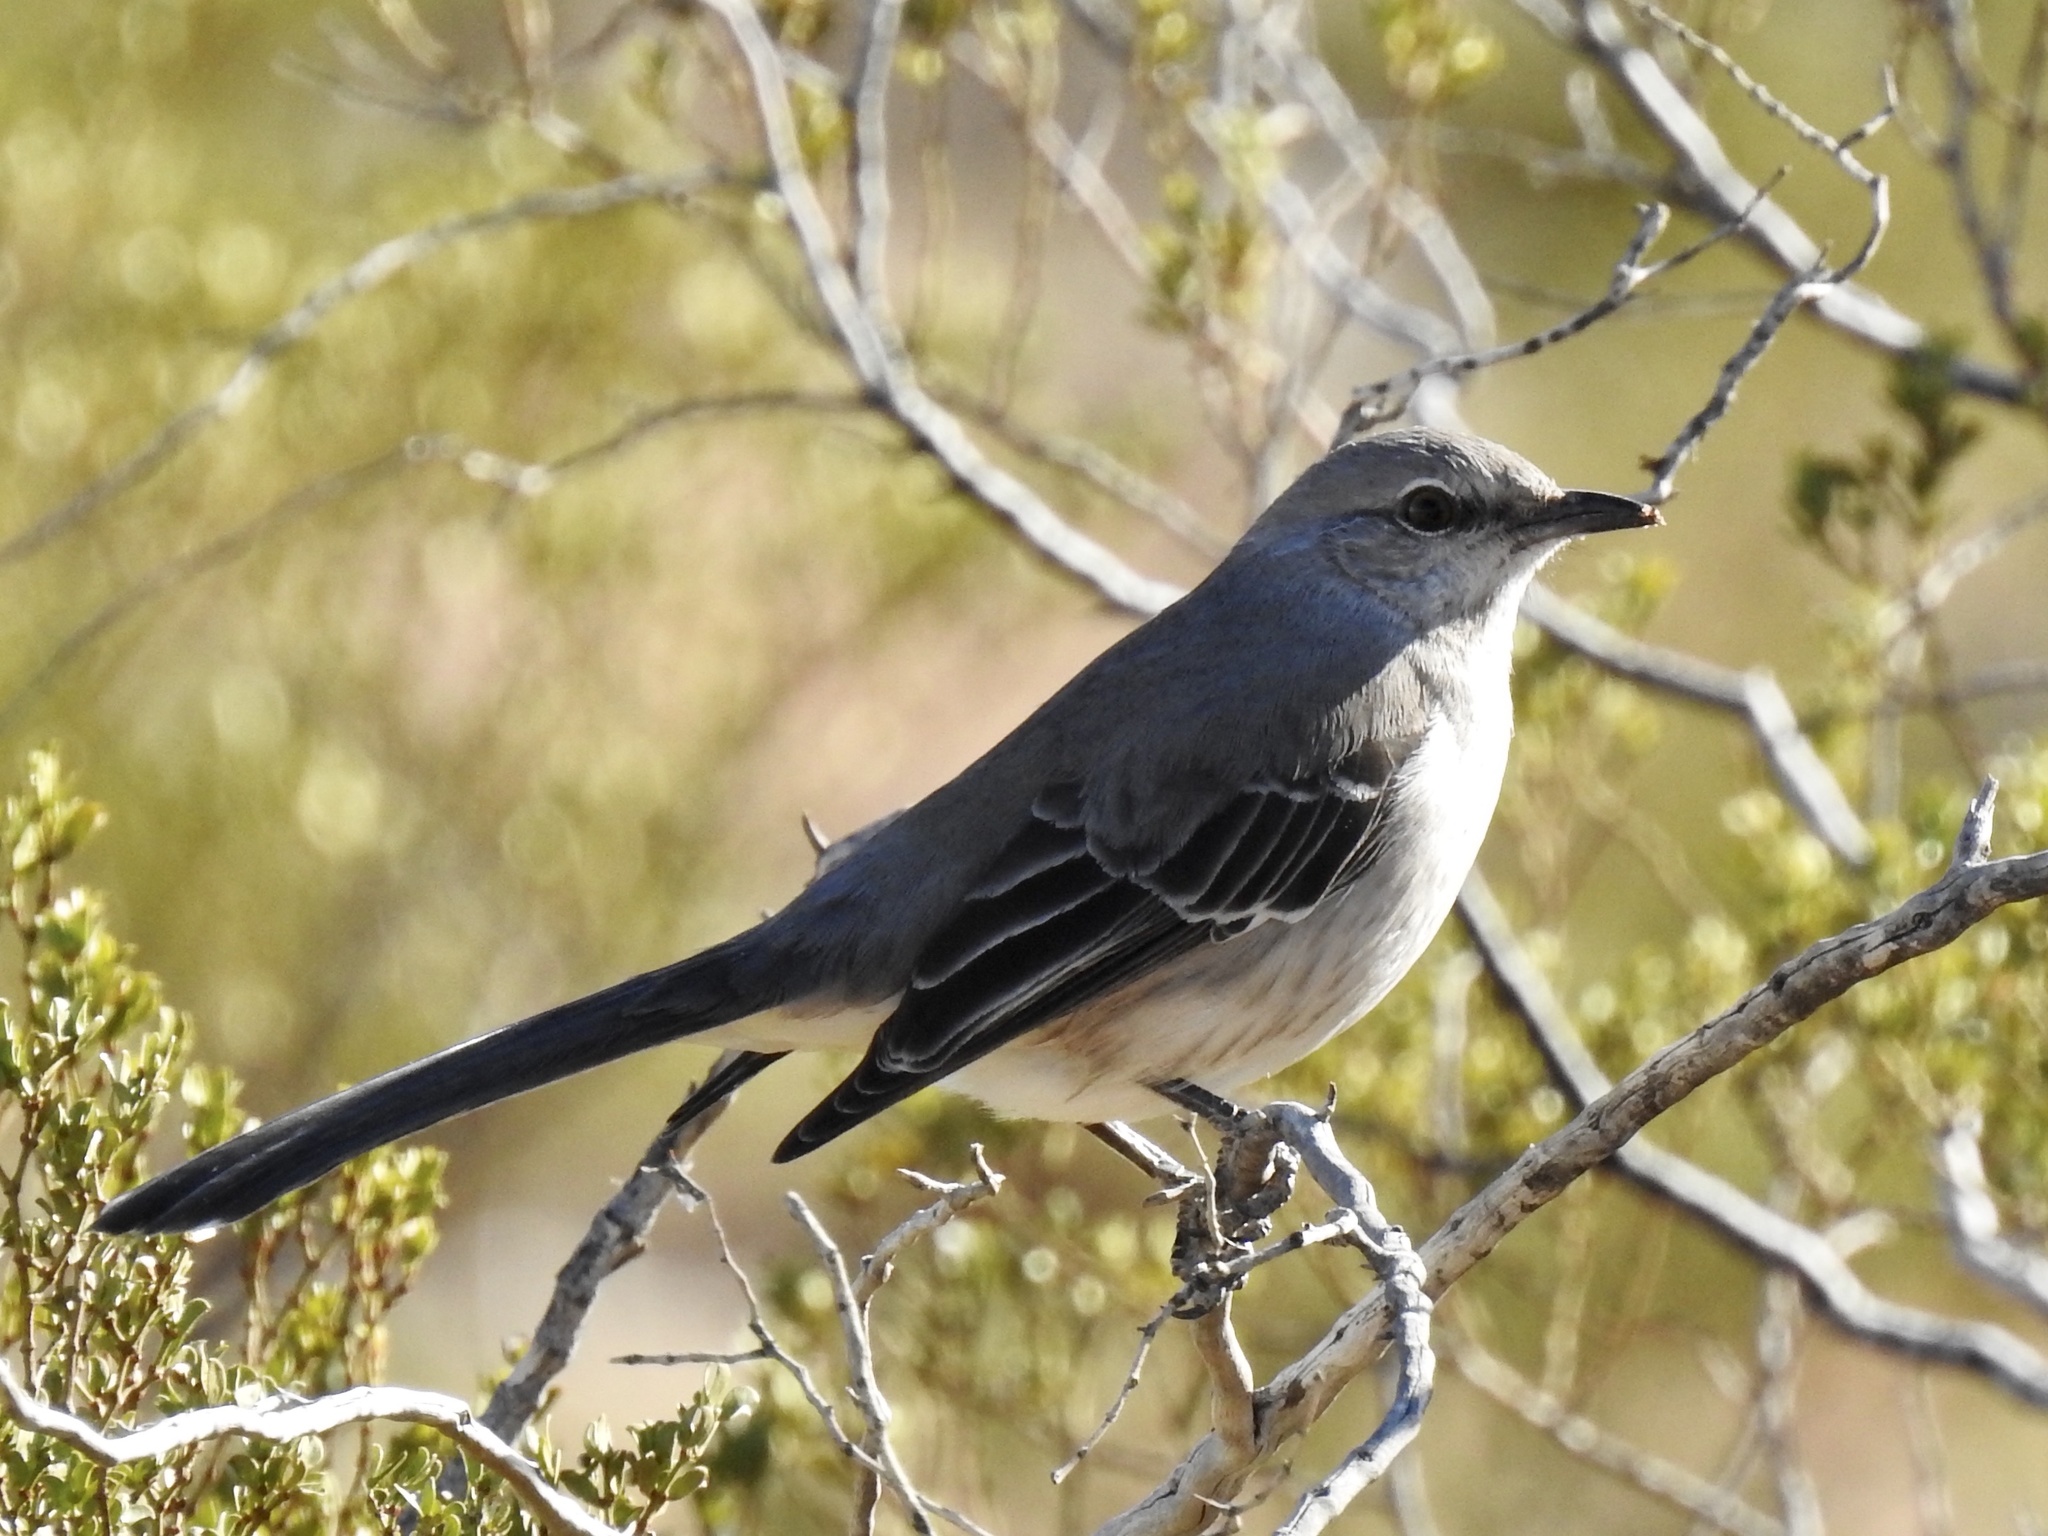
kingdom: Animalia
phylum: Chordata
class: Aves
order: Passeriformes
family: Mimidae
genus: Mimus
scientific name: Mimus polyglottos
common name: Northern mockingbird
